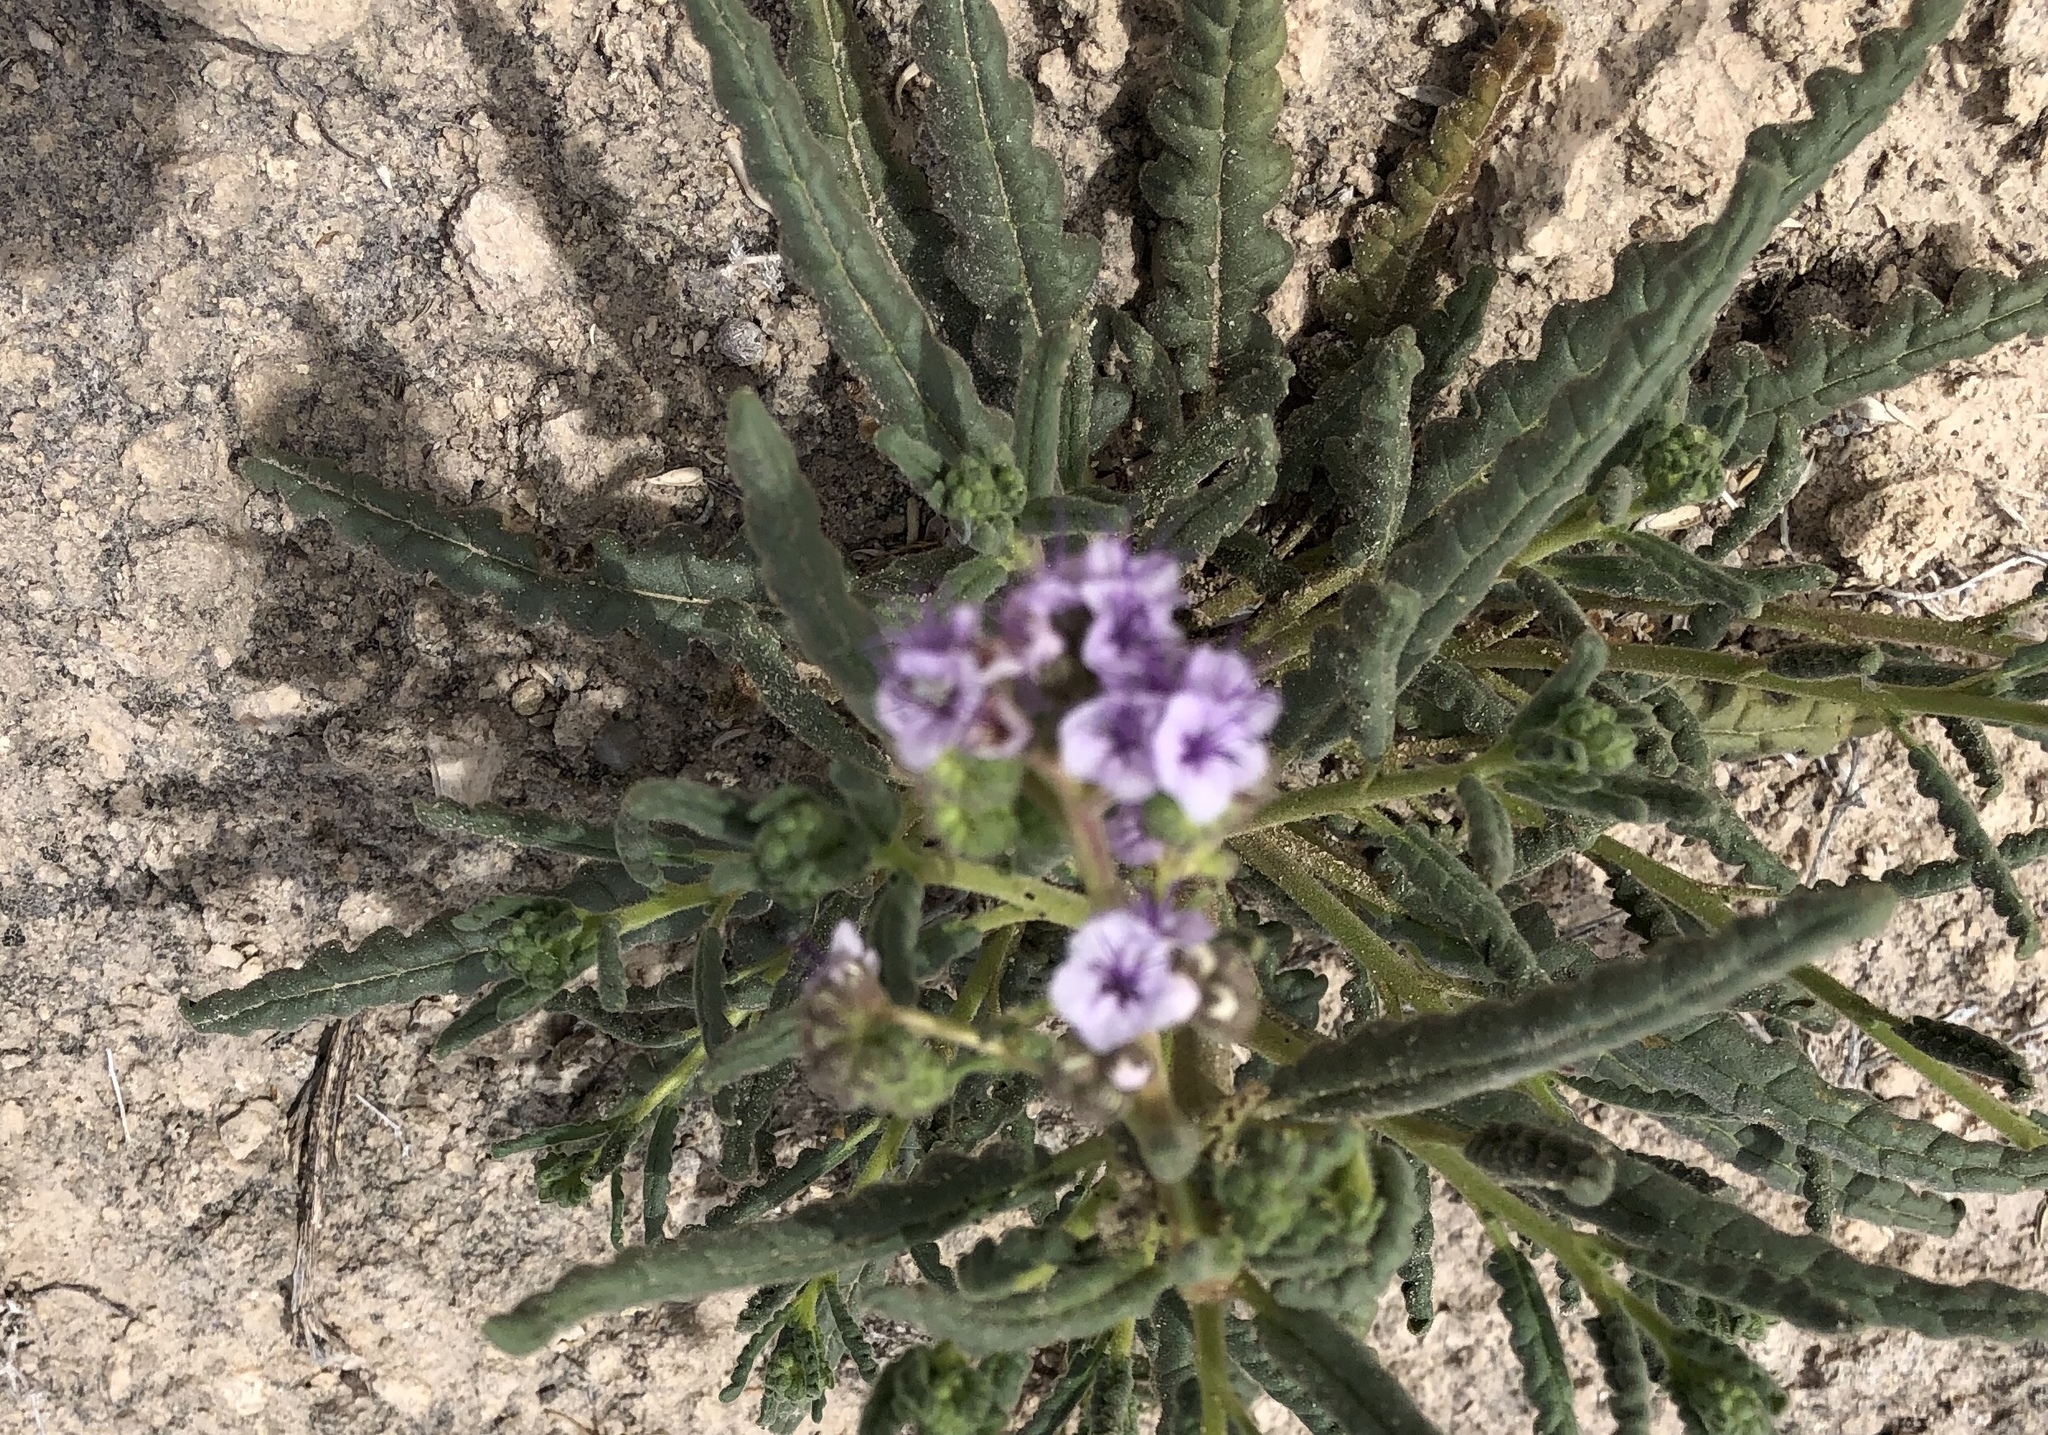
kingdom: Plantae
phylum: Tracheophyta
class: Magnoliopsida
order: Boraginales
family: Hydrophyllaceae
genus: Phacelia
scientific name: Phacelia integrifolia
